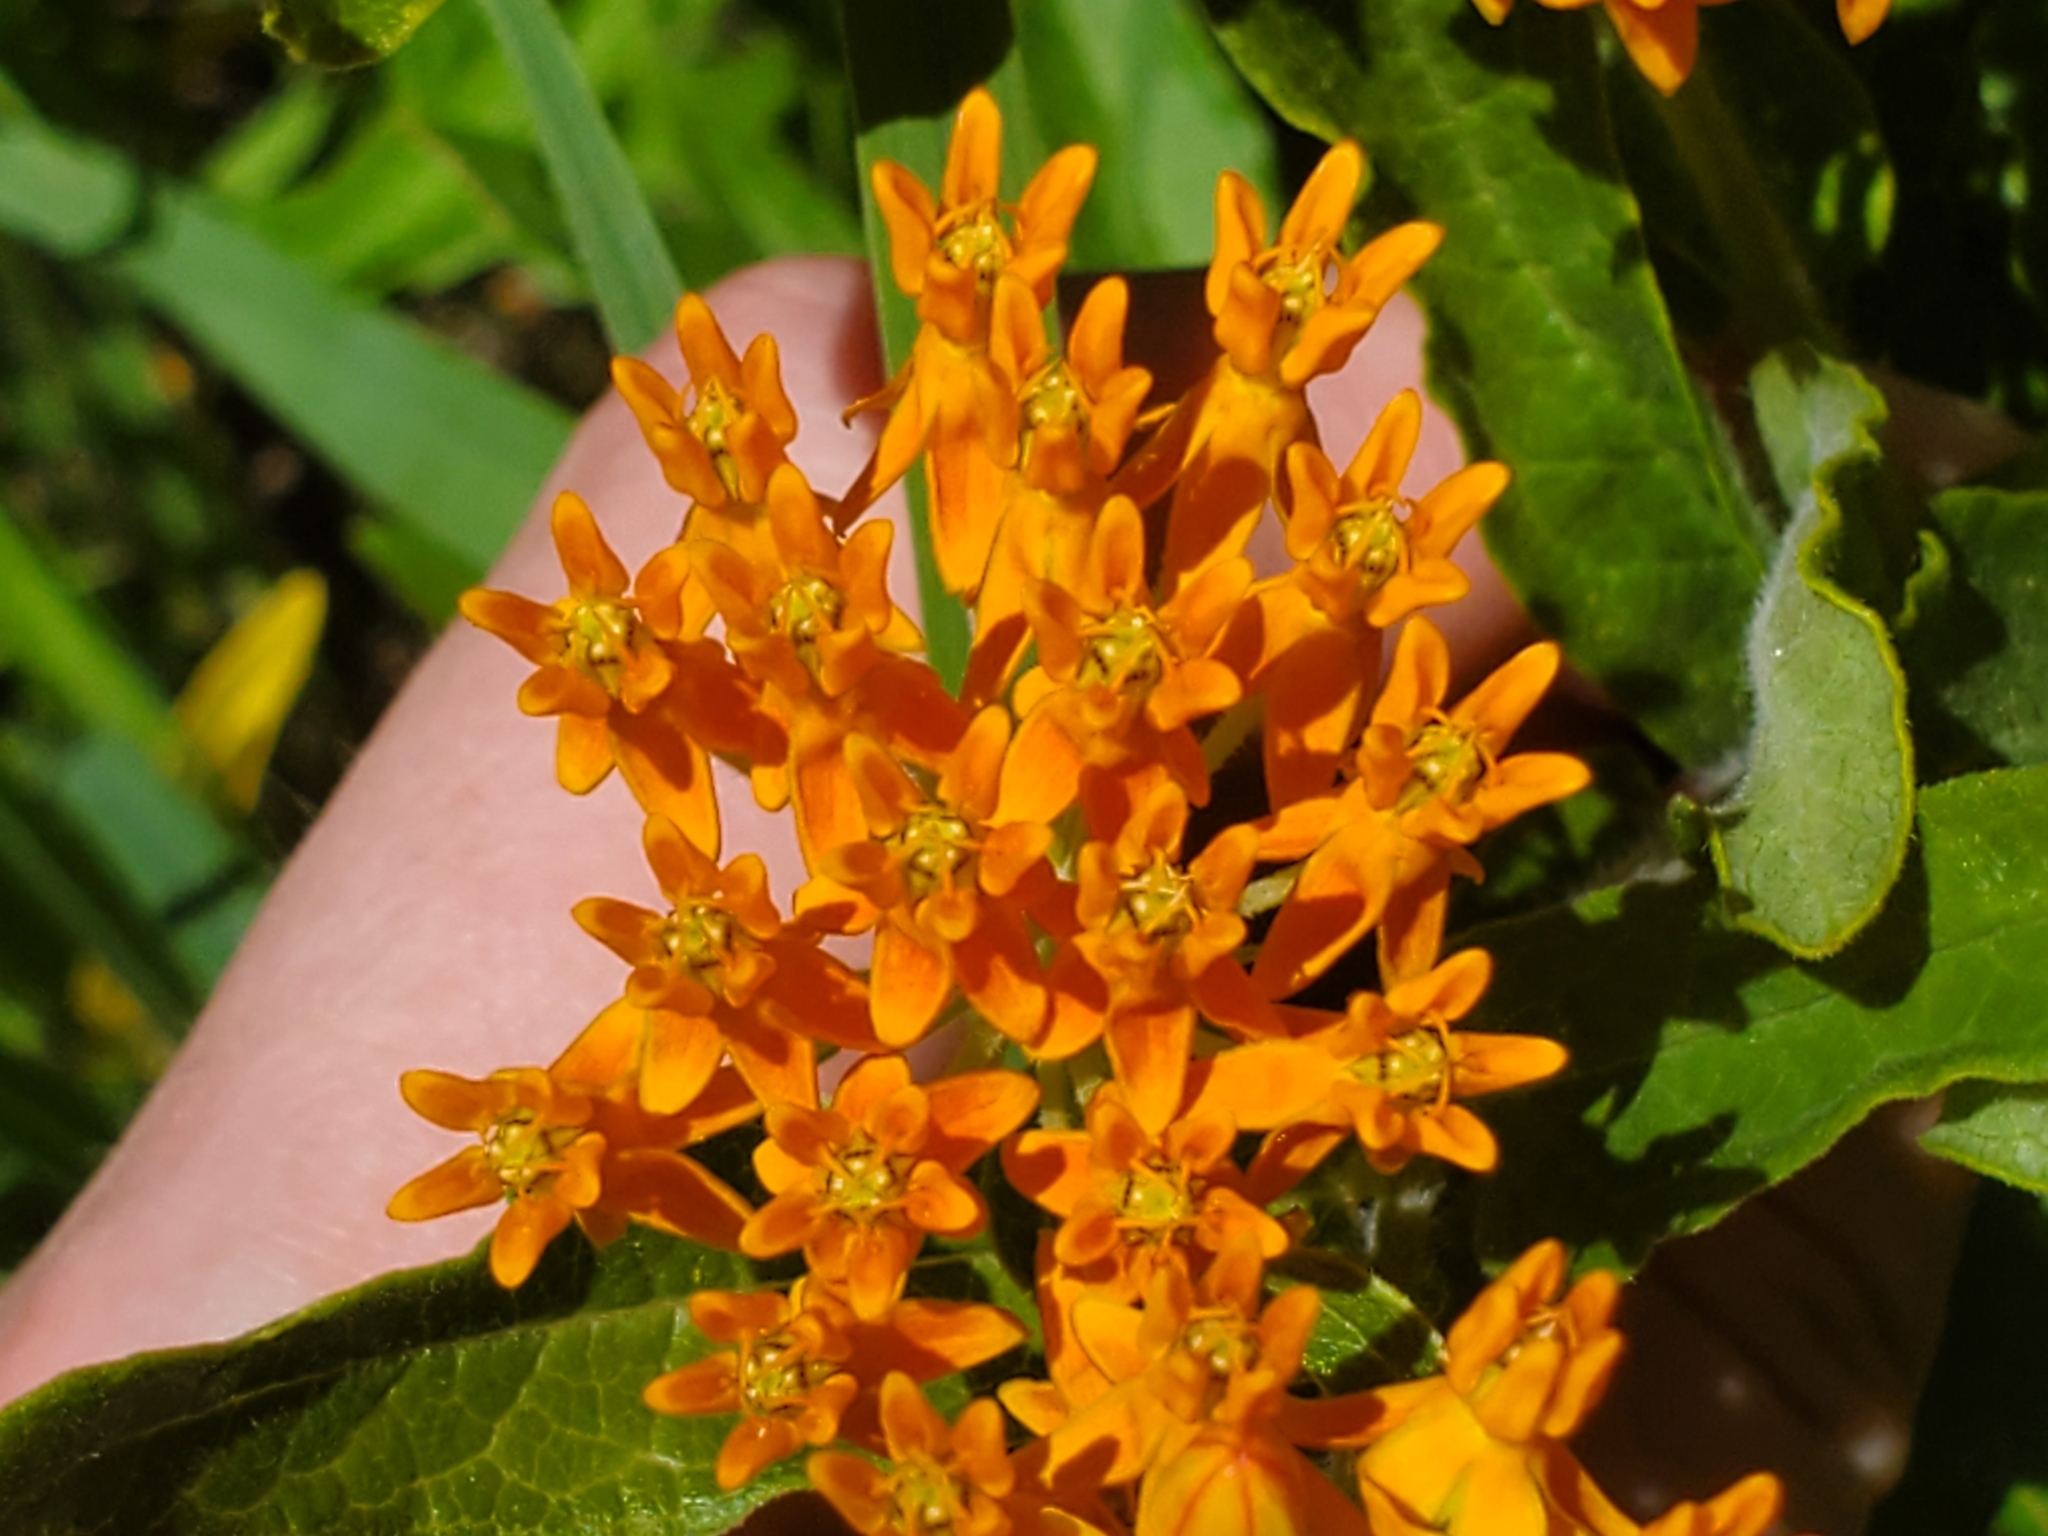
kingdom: Plantae
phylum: Tracheophyta
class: Magnoliopsida
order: Gentianales
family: Apocynaceae
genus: Asclepias
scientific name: Asclepias tuberosa
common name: Butterfly milkweed
